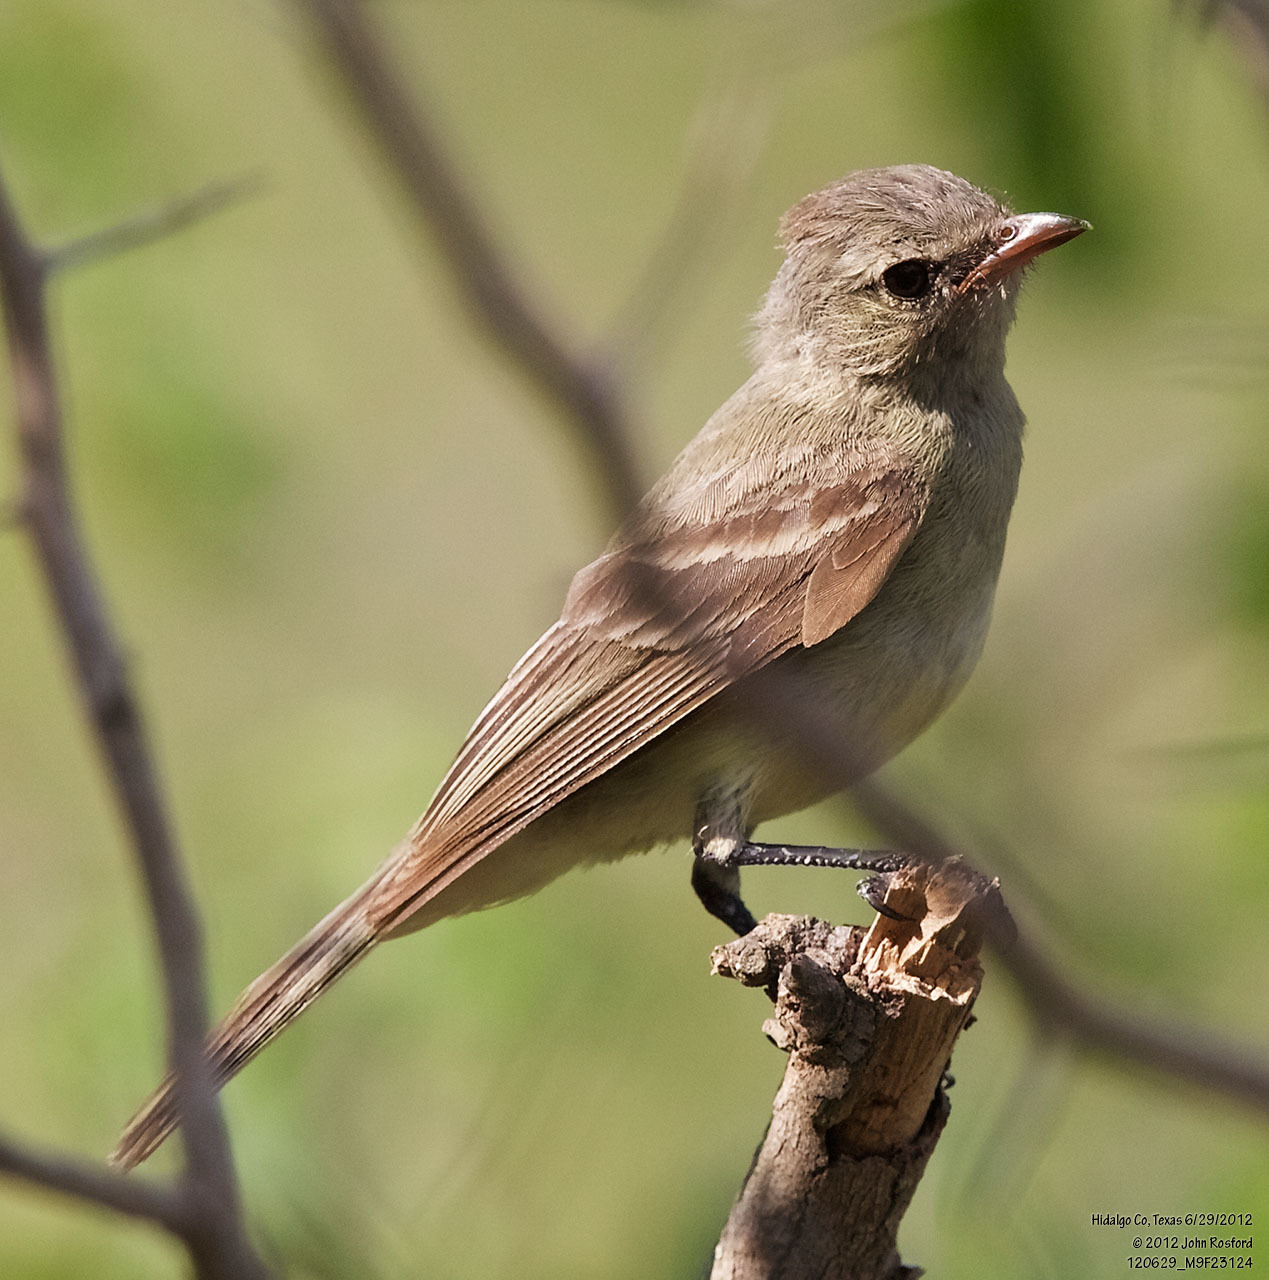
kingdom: Animalia
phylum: Chordata
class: Aves
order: Passeriformes
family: Tyrannidae
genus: Camptostoma
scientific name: Camptostoma imberbe
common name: Northern beardless-tyrannulet
